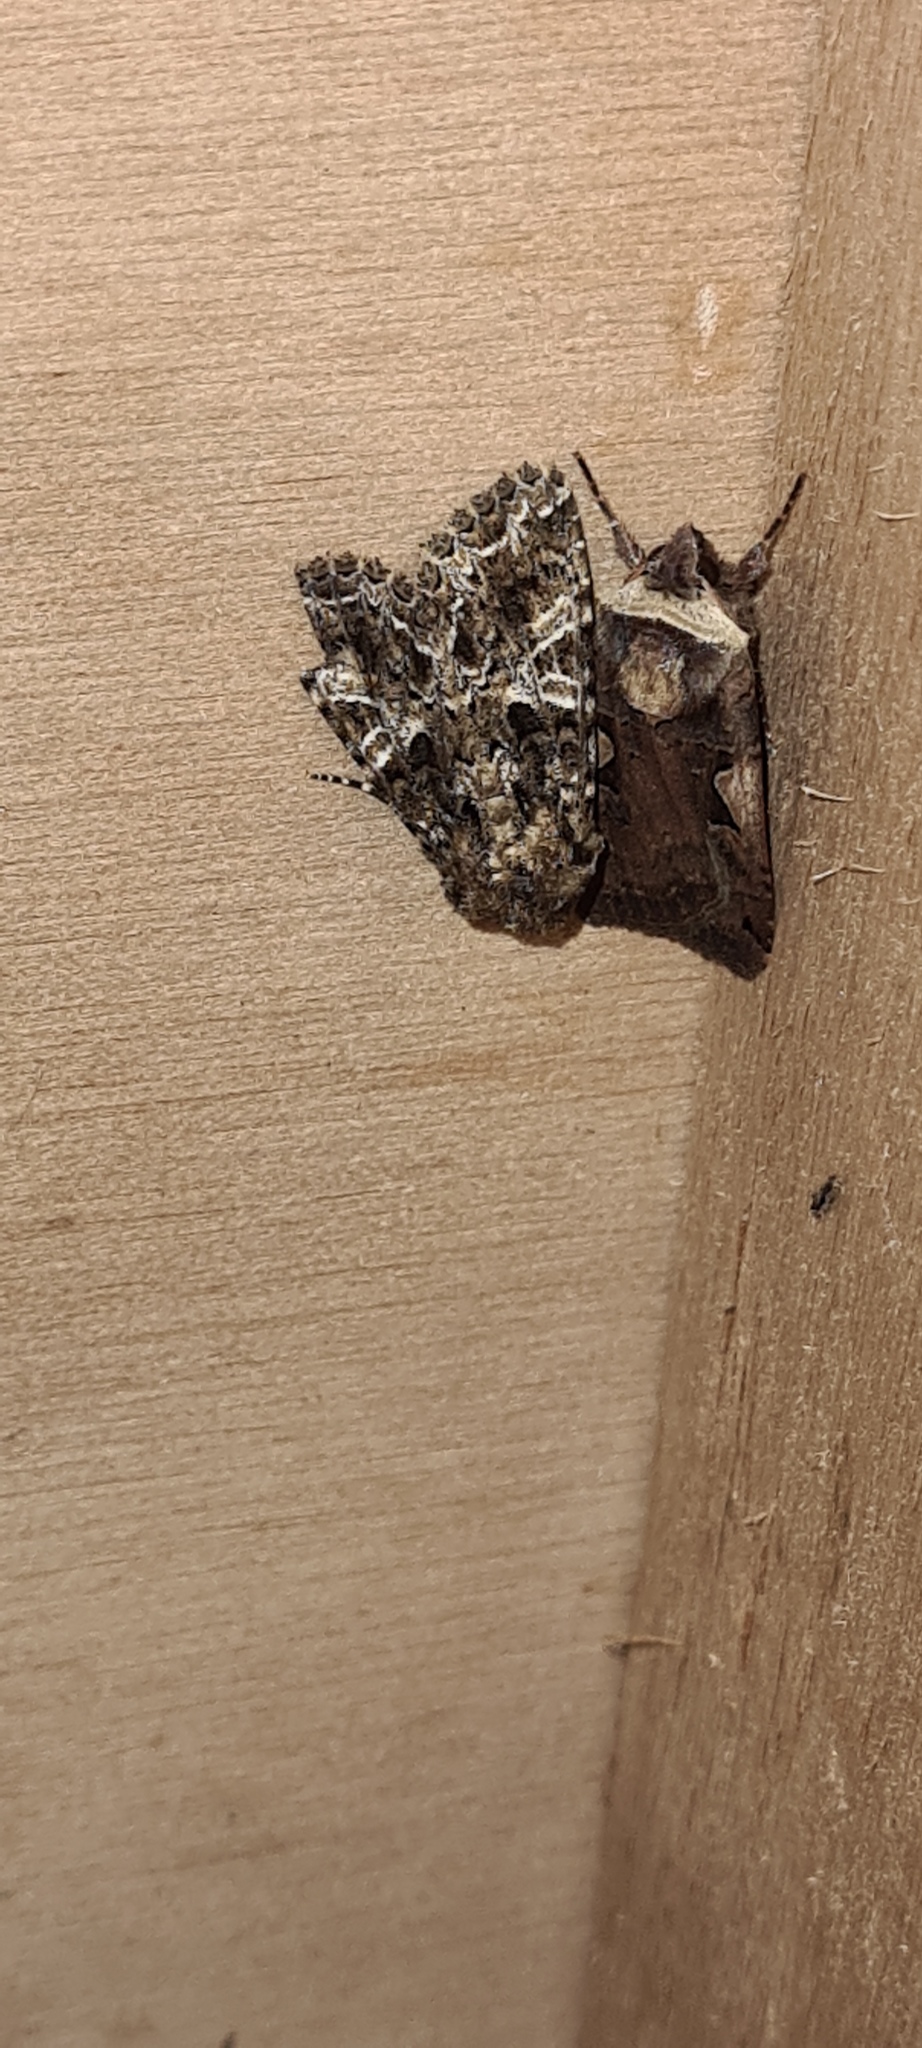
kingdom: Animalia
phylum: Arthropoda
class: Insecta
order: Lepidoptera
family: Noctuidae
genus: Hadena
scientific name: Hadena bicruris
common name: Lychnis
